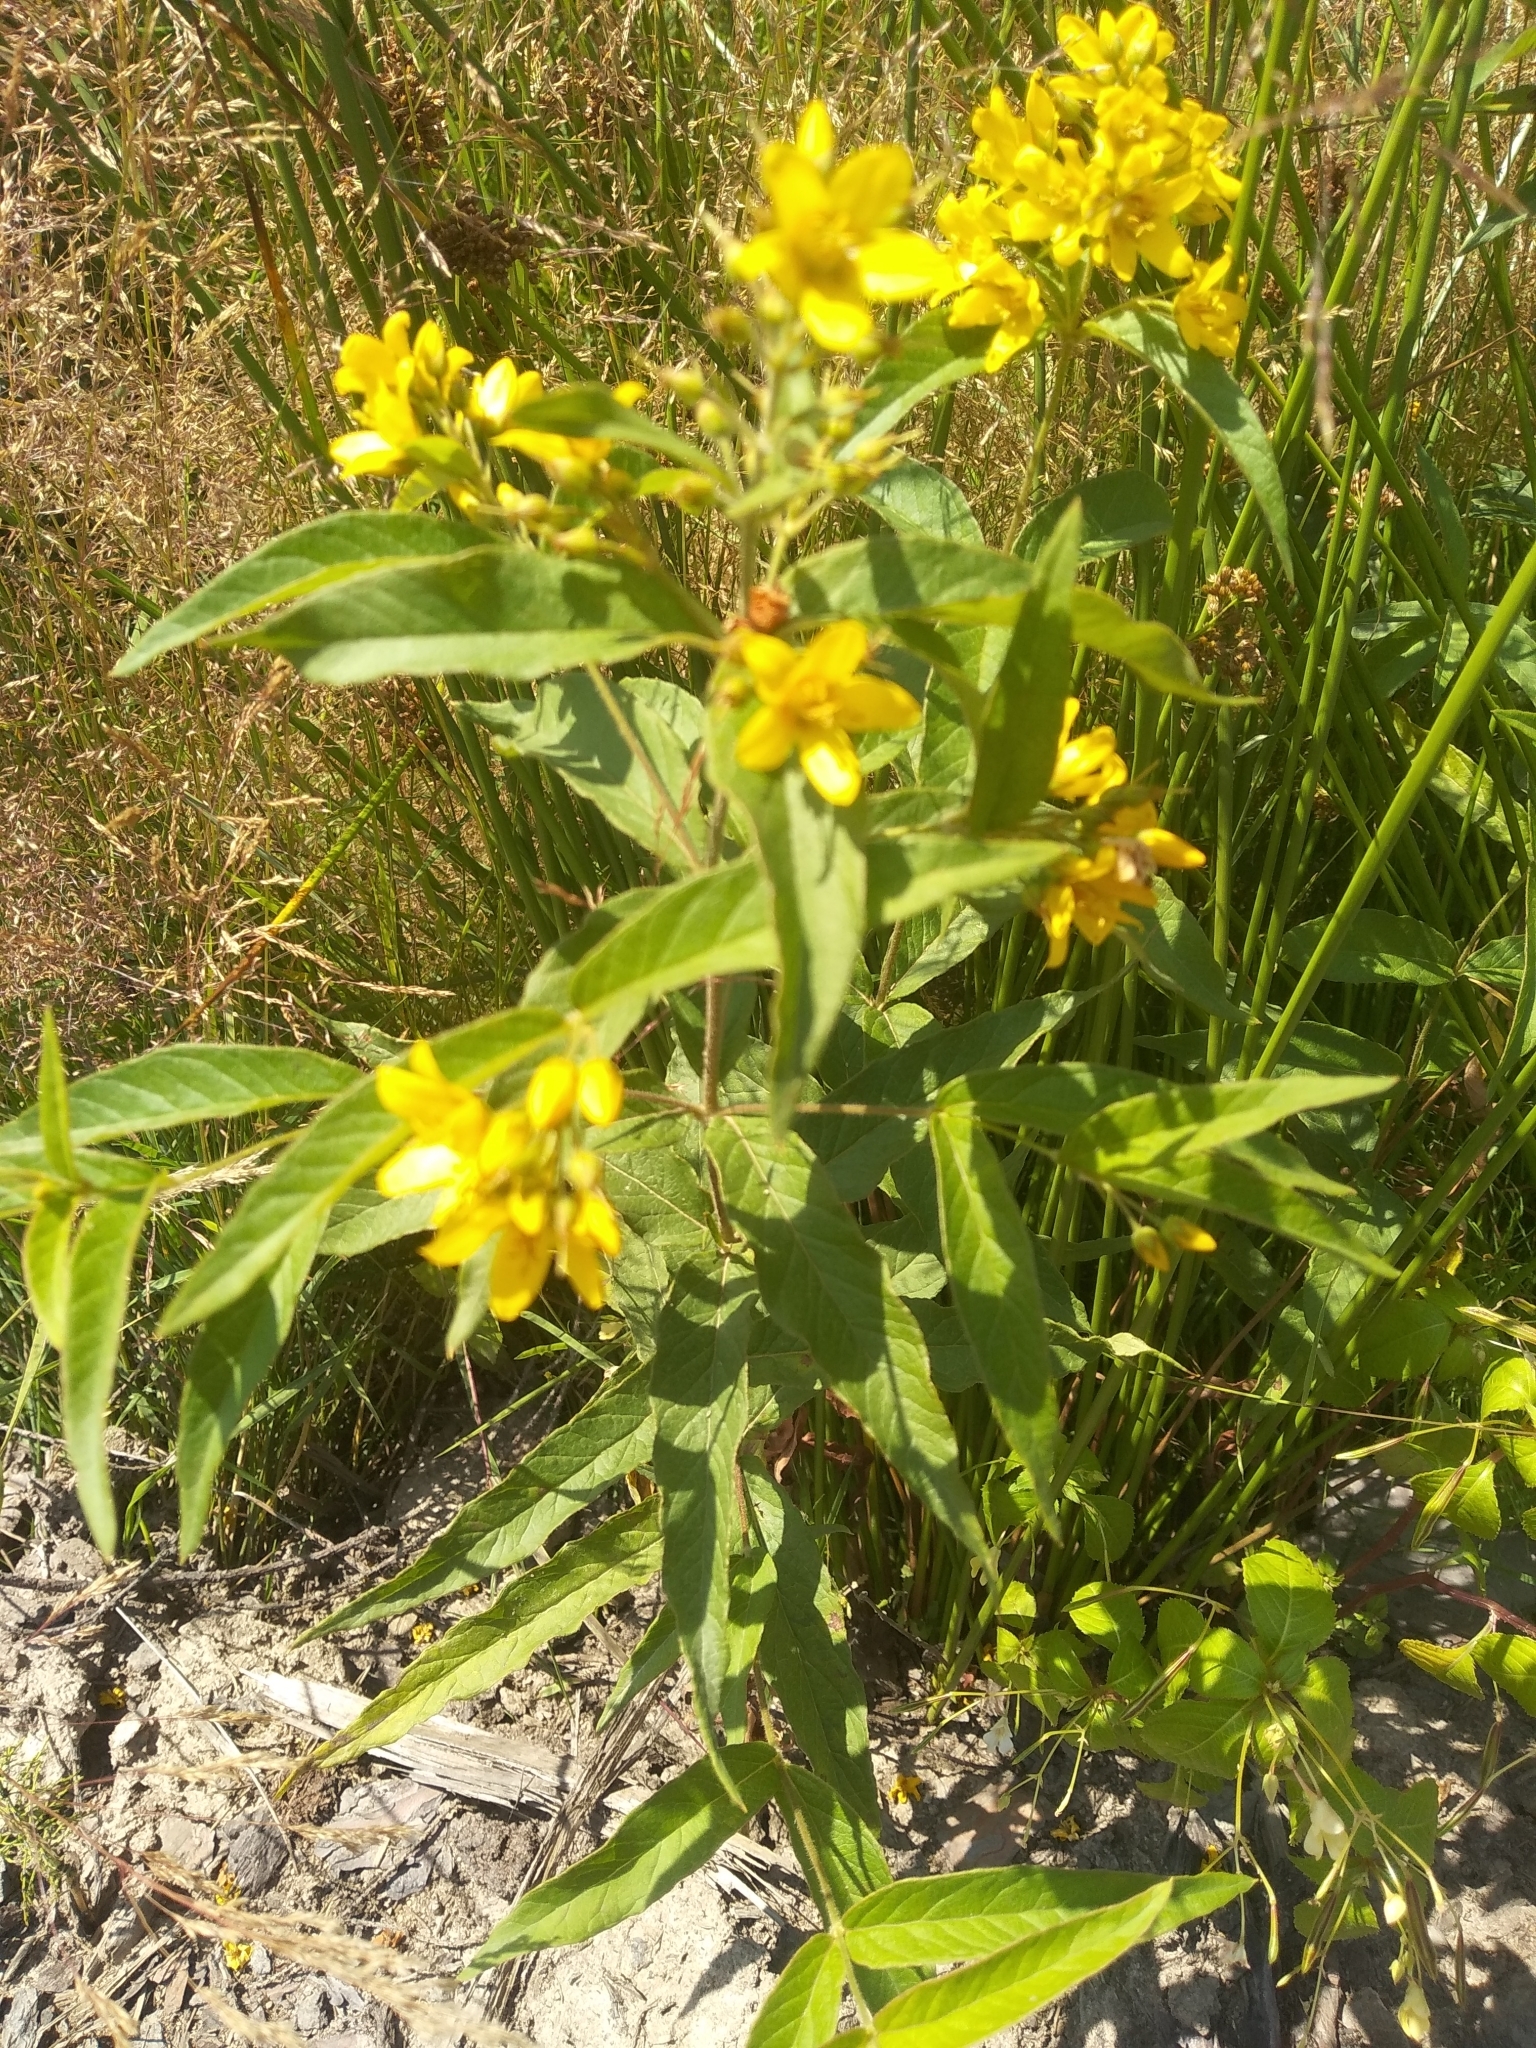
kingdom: Plantae
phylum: Tracheophyta
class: Magnoliopsida
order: Ericales
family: Primulaceae
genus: Lysimachia
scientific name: Lysimachia vulgaris
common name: Yellow loosestrife
